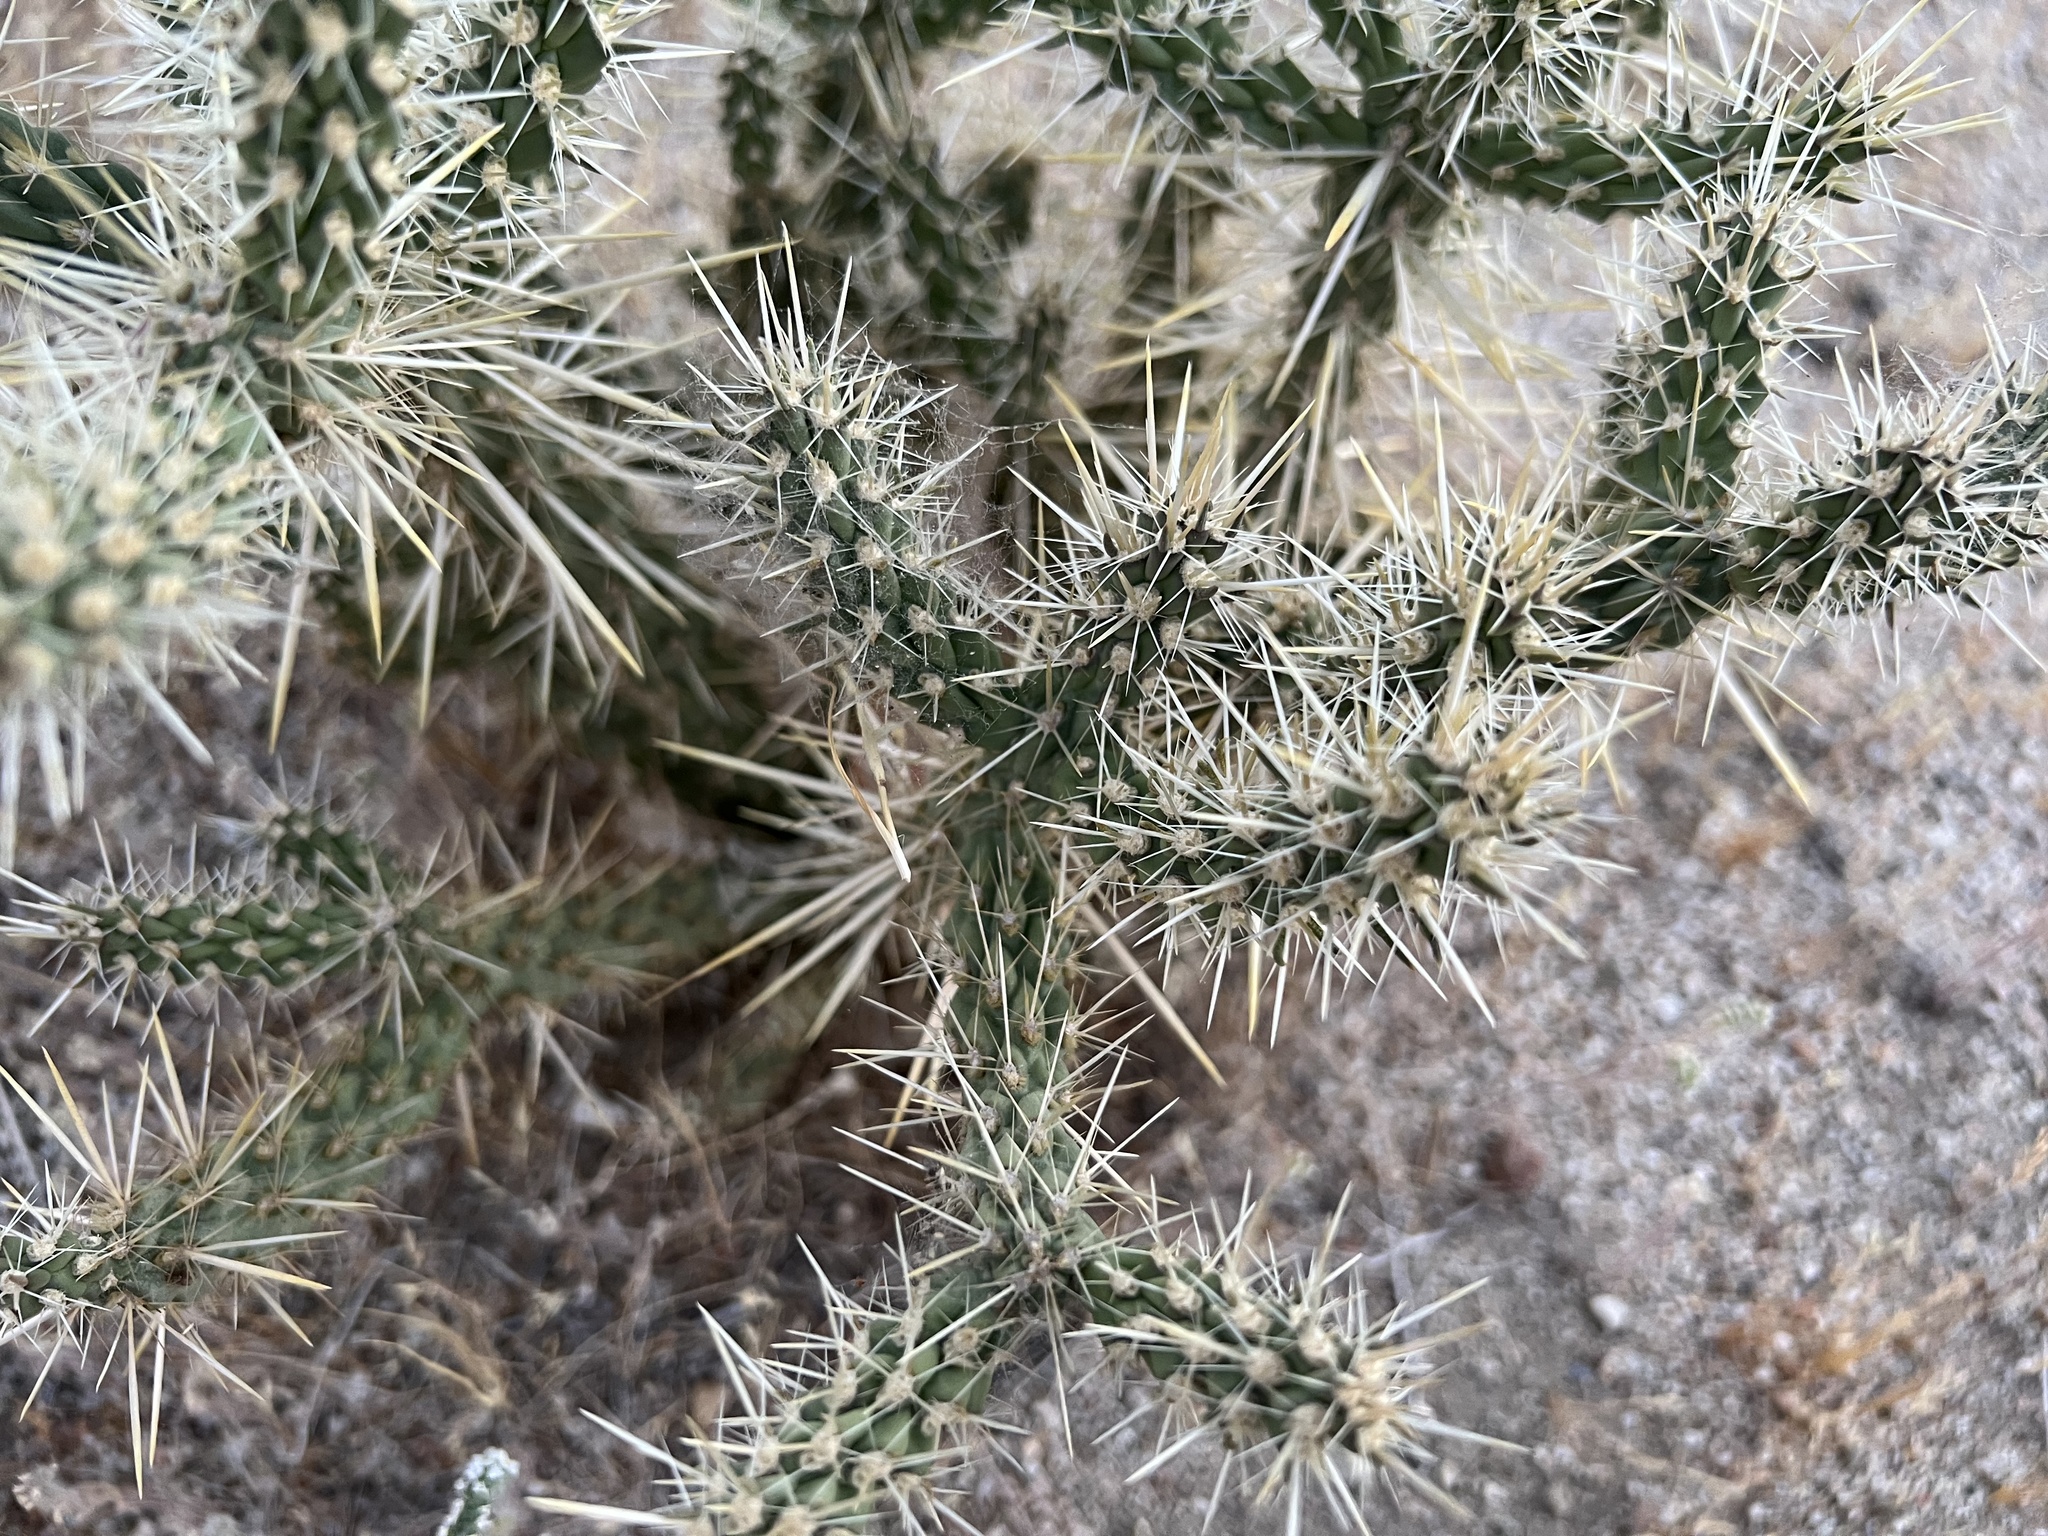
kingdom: Plantae
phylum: Tracheophyta
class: Magnoliopsida
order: Caryophyllales
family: Cactaceae
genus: Cylindropuntia
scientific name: Cylindropuntia ganderi
